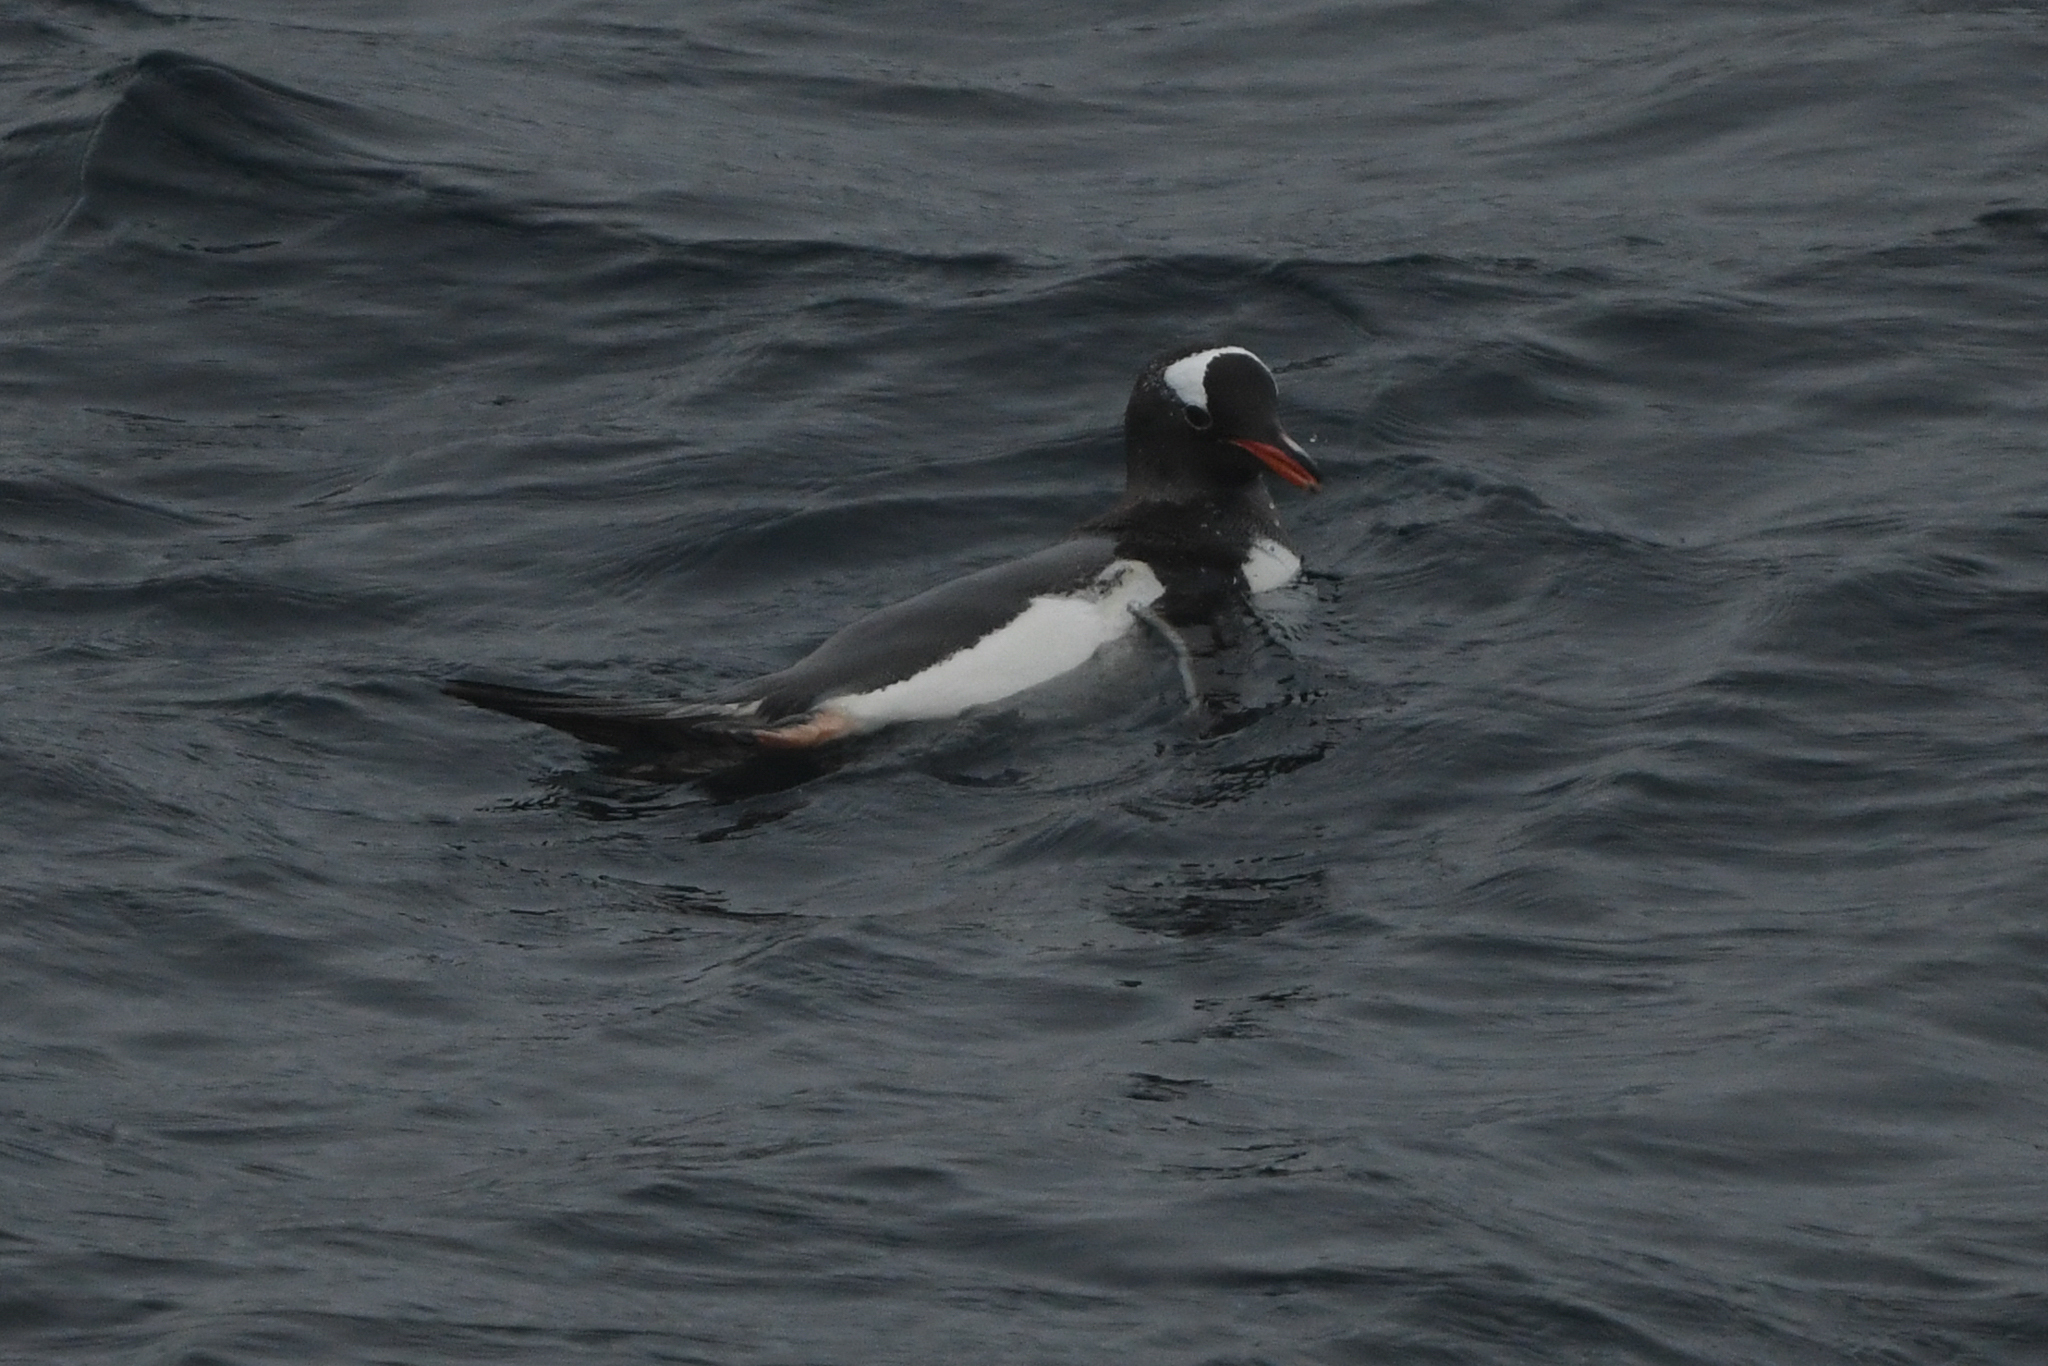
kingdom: Animalia
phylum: Chordata
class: Aves
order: Sphenisciformes
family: Spheniscidae
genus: Pygoscelis
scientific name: Pygoscelis papua
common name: Gentoo penguin
